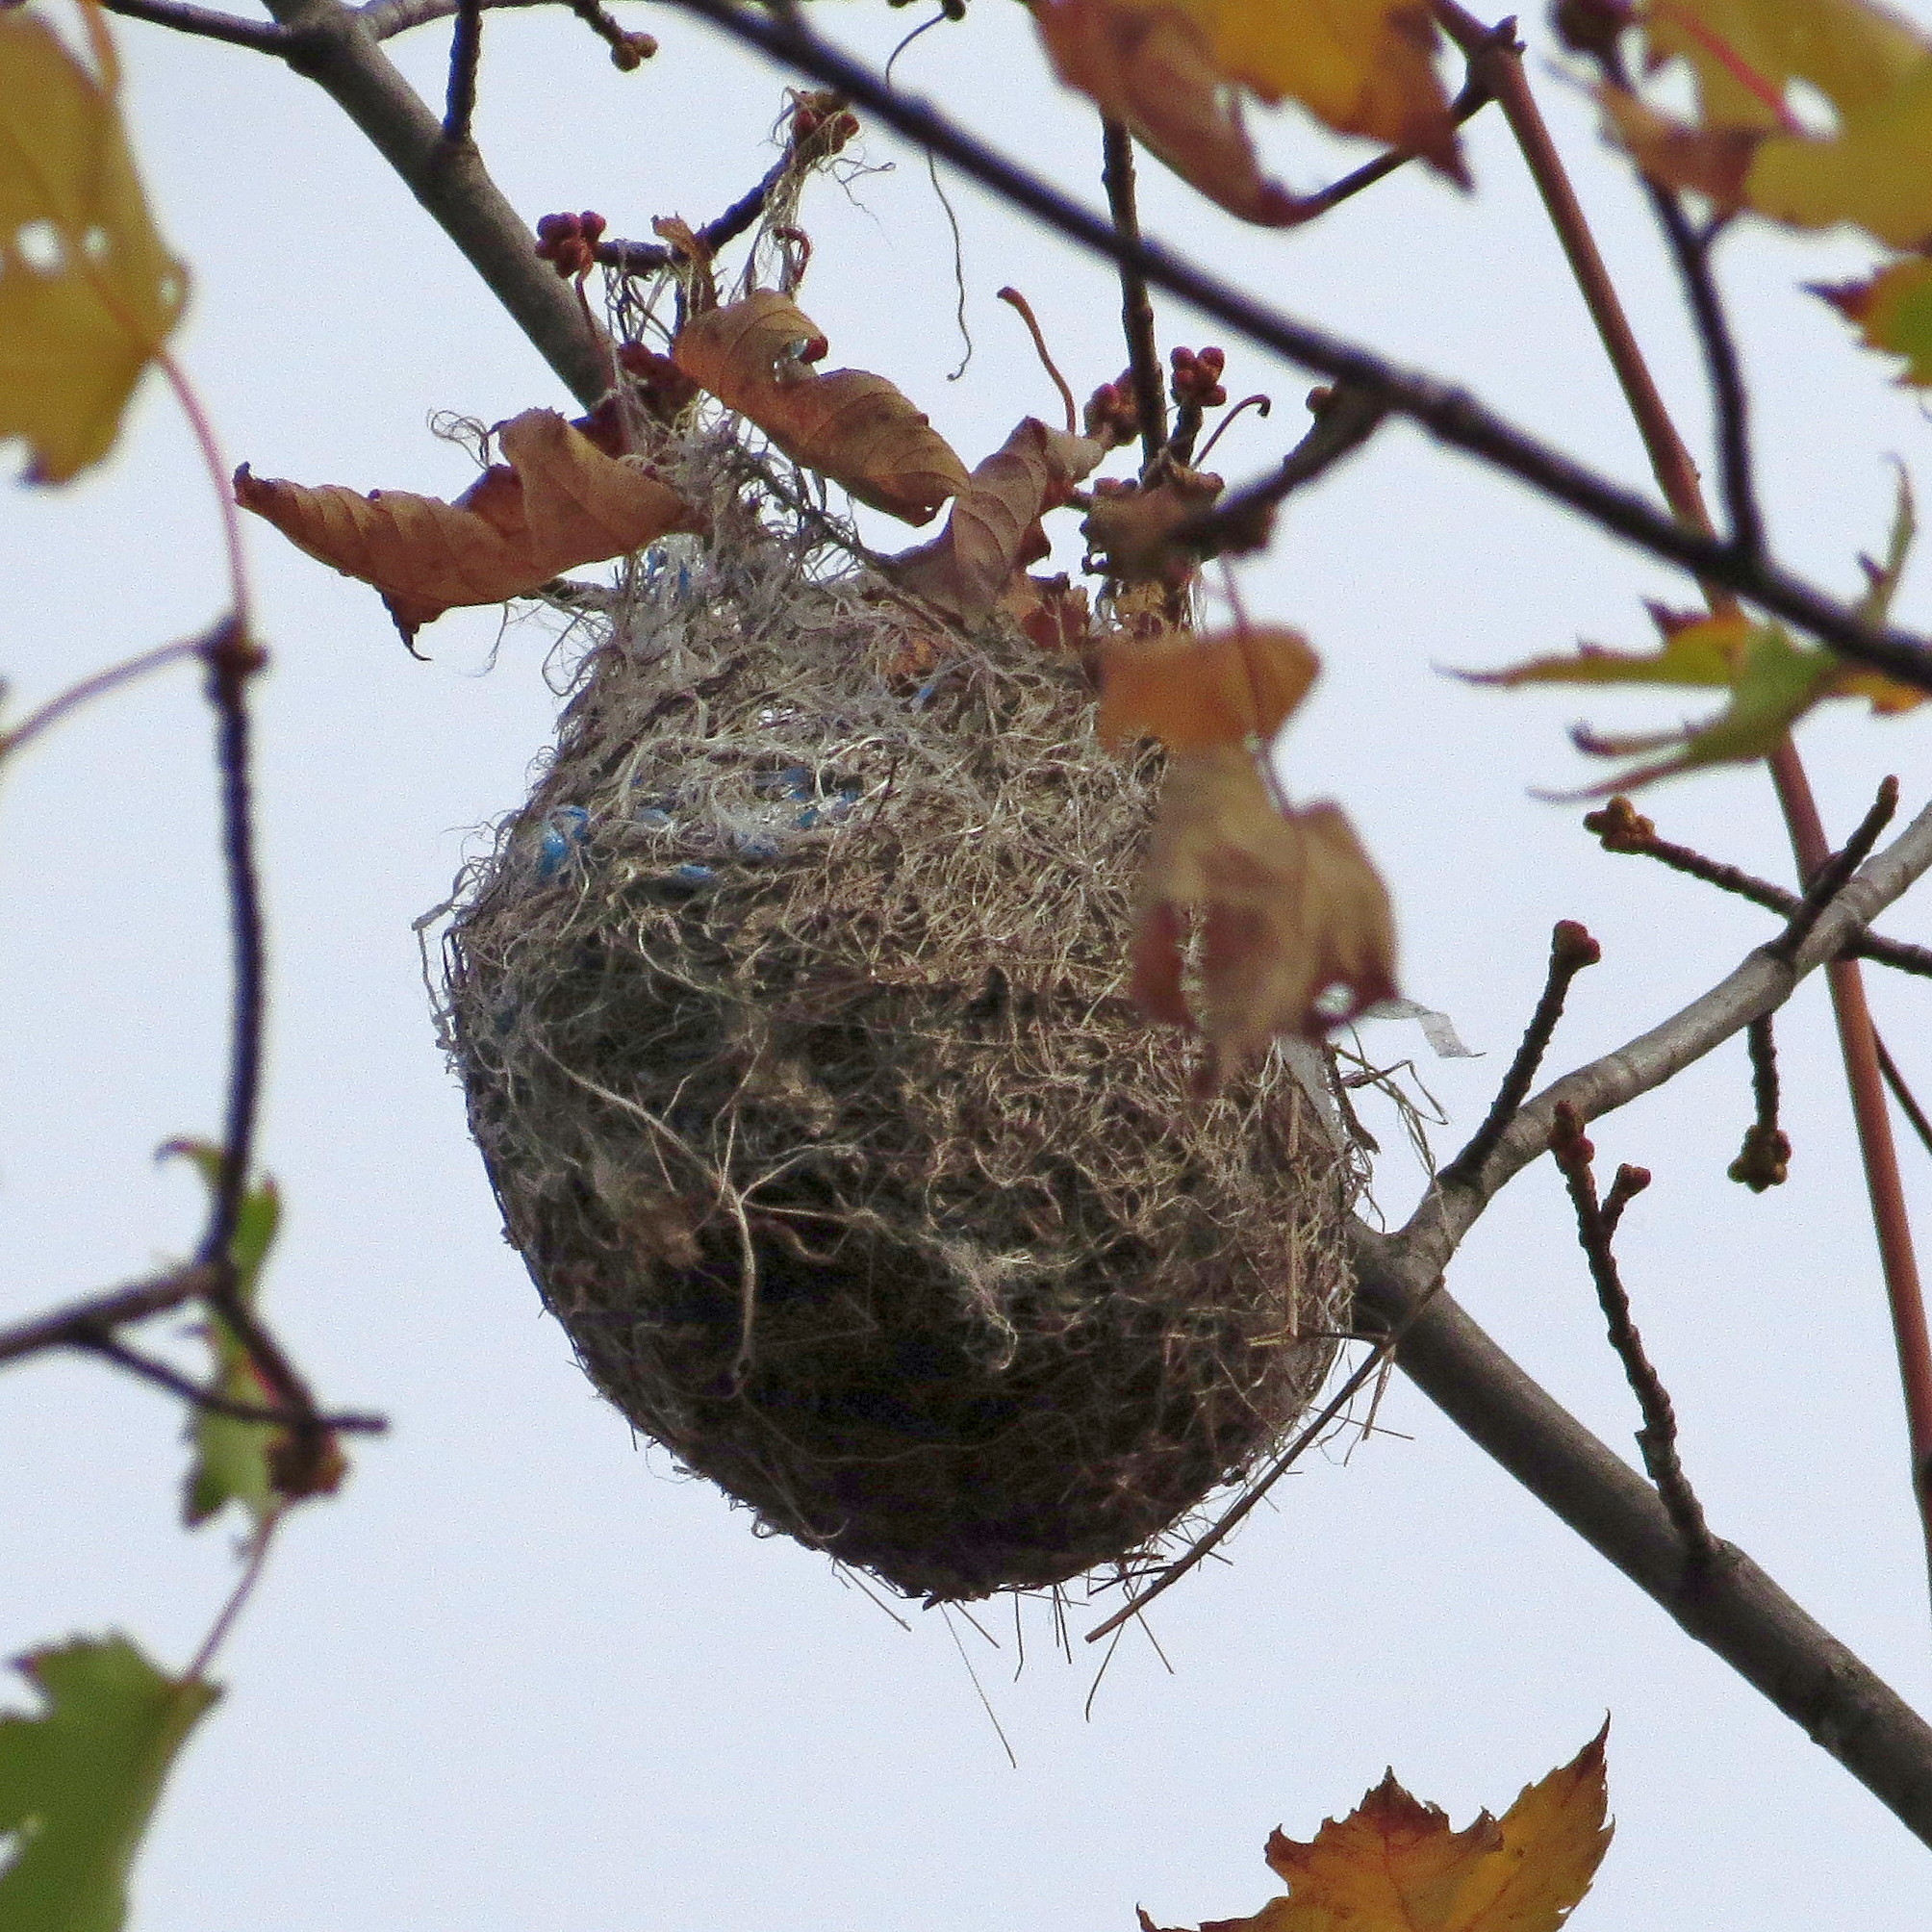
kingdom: Animalia
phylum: Chordata
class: Aves
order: Passeriformes
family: Icteridae
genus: Icterus
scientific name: Icterus galbula
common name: Baltimore oriole
